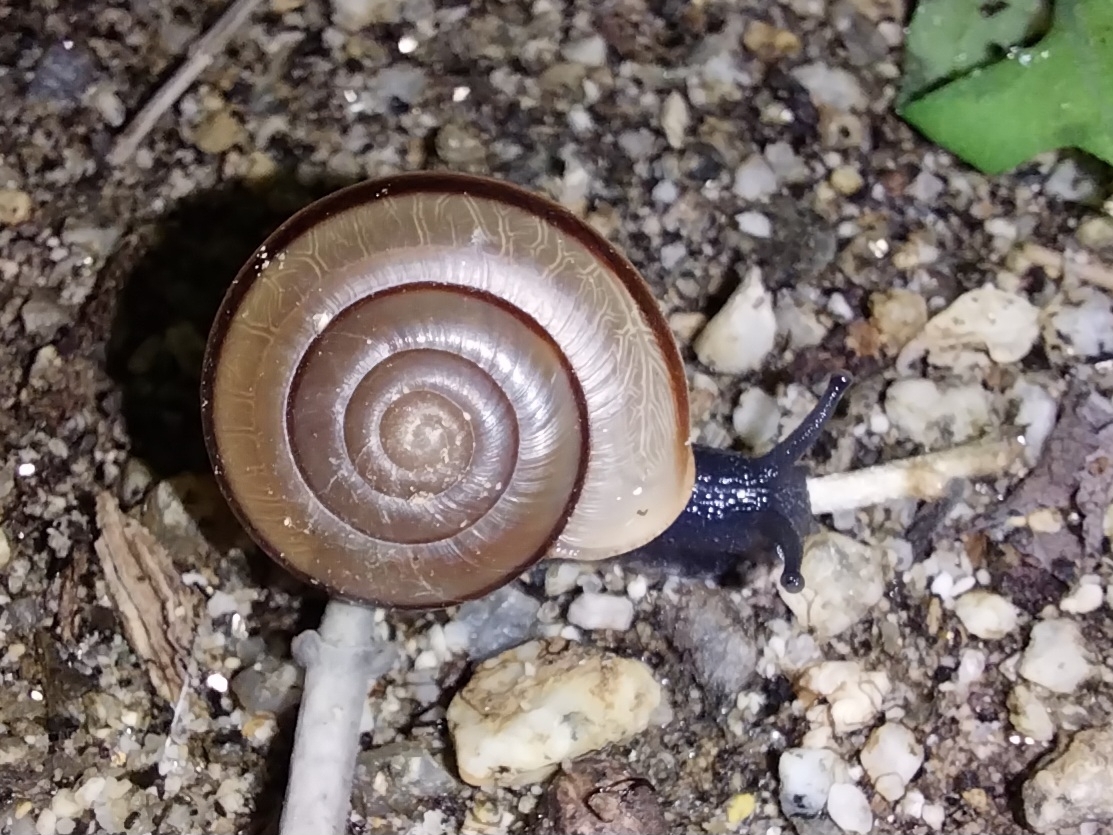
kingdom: Animalia
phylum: Mollusca
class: Gastropoda
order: Stylommatophora
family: Xanthonychidae
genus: Sonorelix
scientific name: Sonorelix borregoensis
